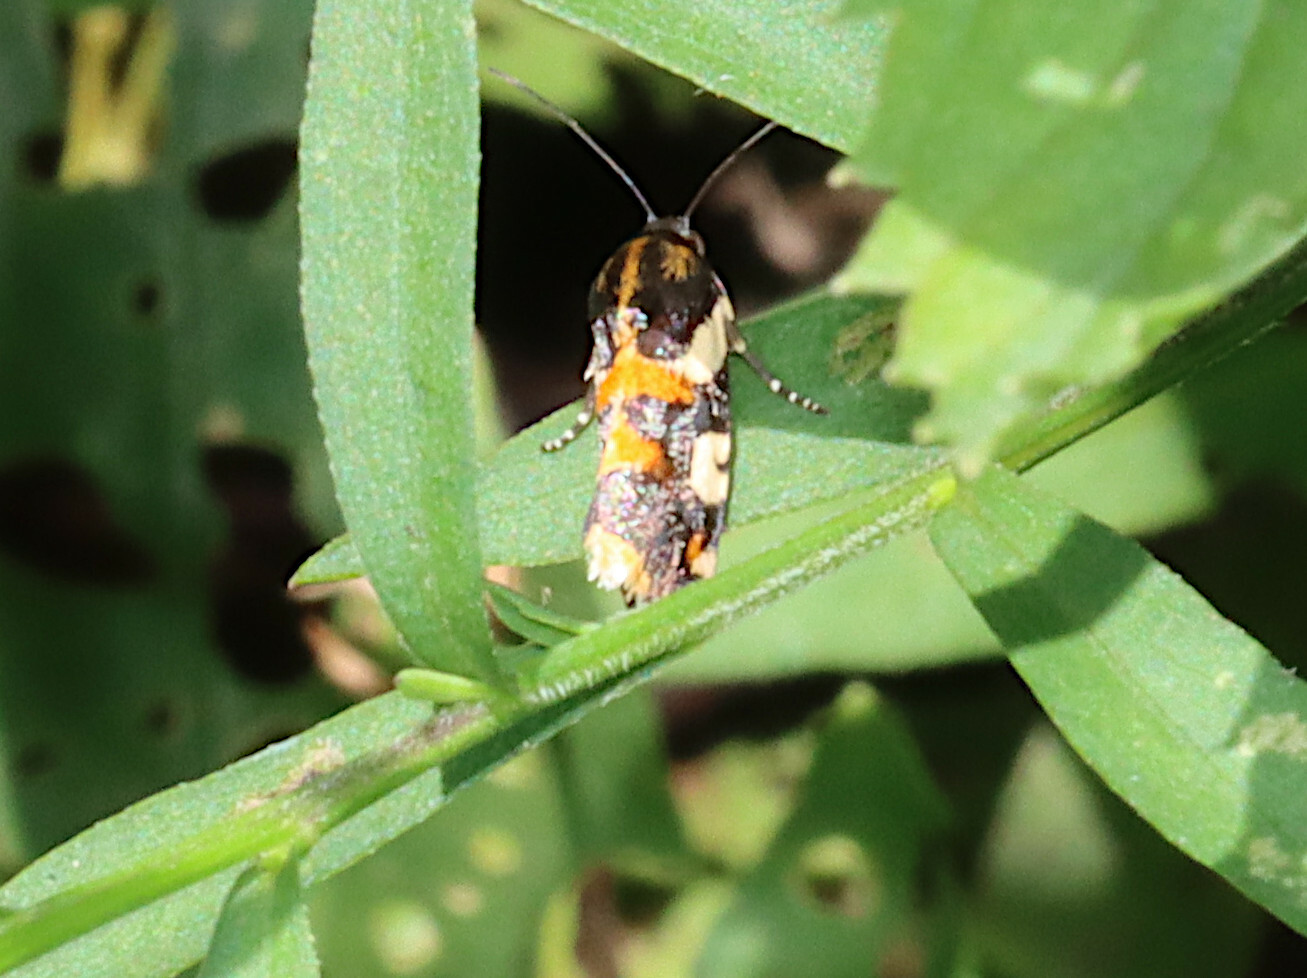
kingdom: Animalia
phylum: Arthropoda
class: Insecta
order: Lepidoptera
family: Noctuidae
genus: Acontia
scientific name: Acontia dama
